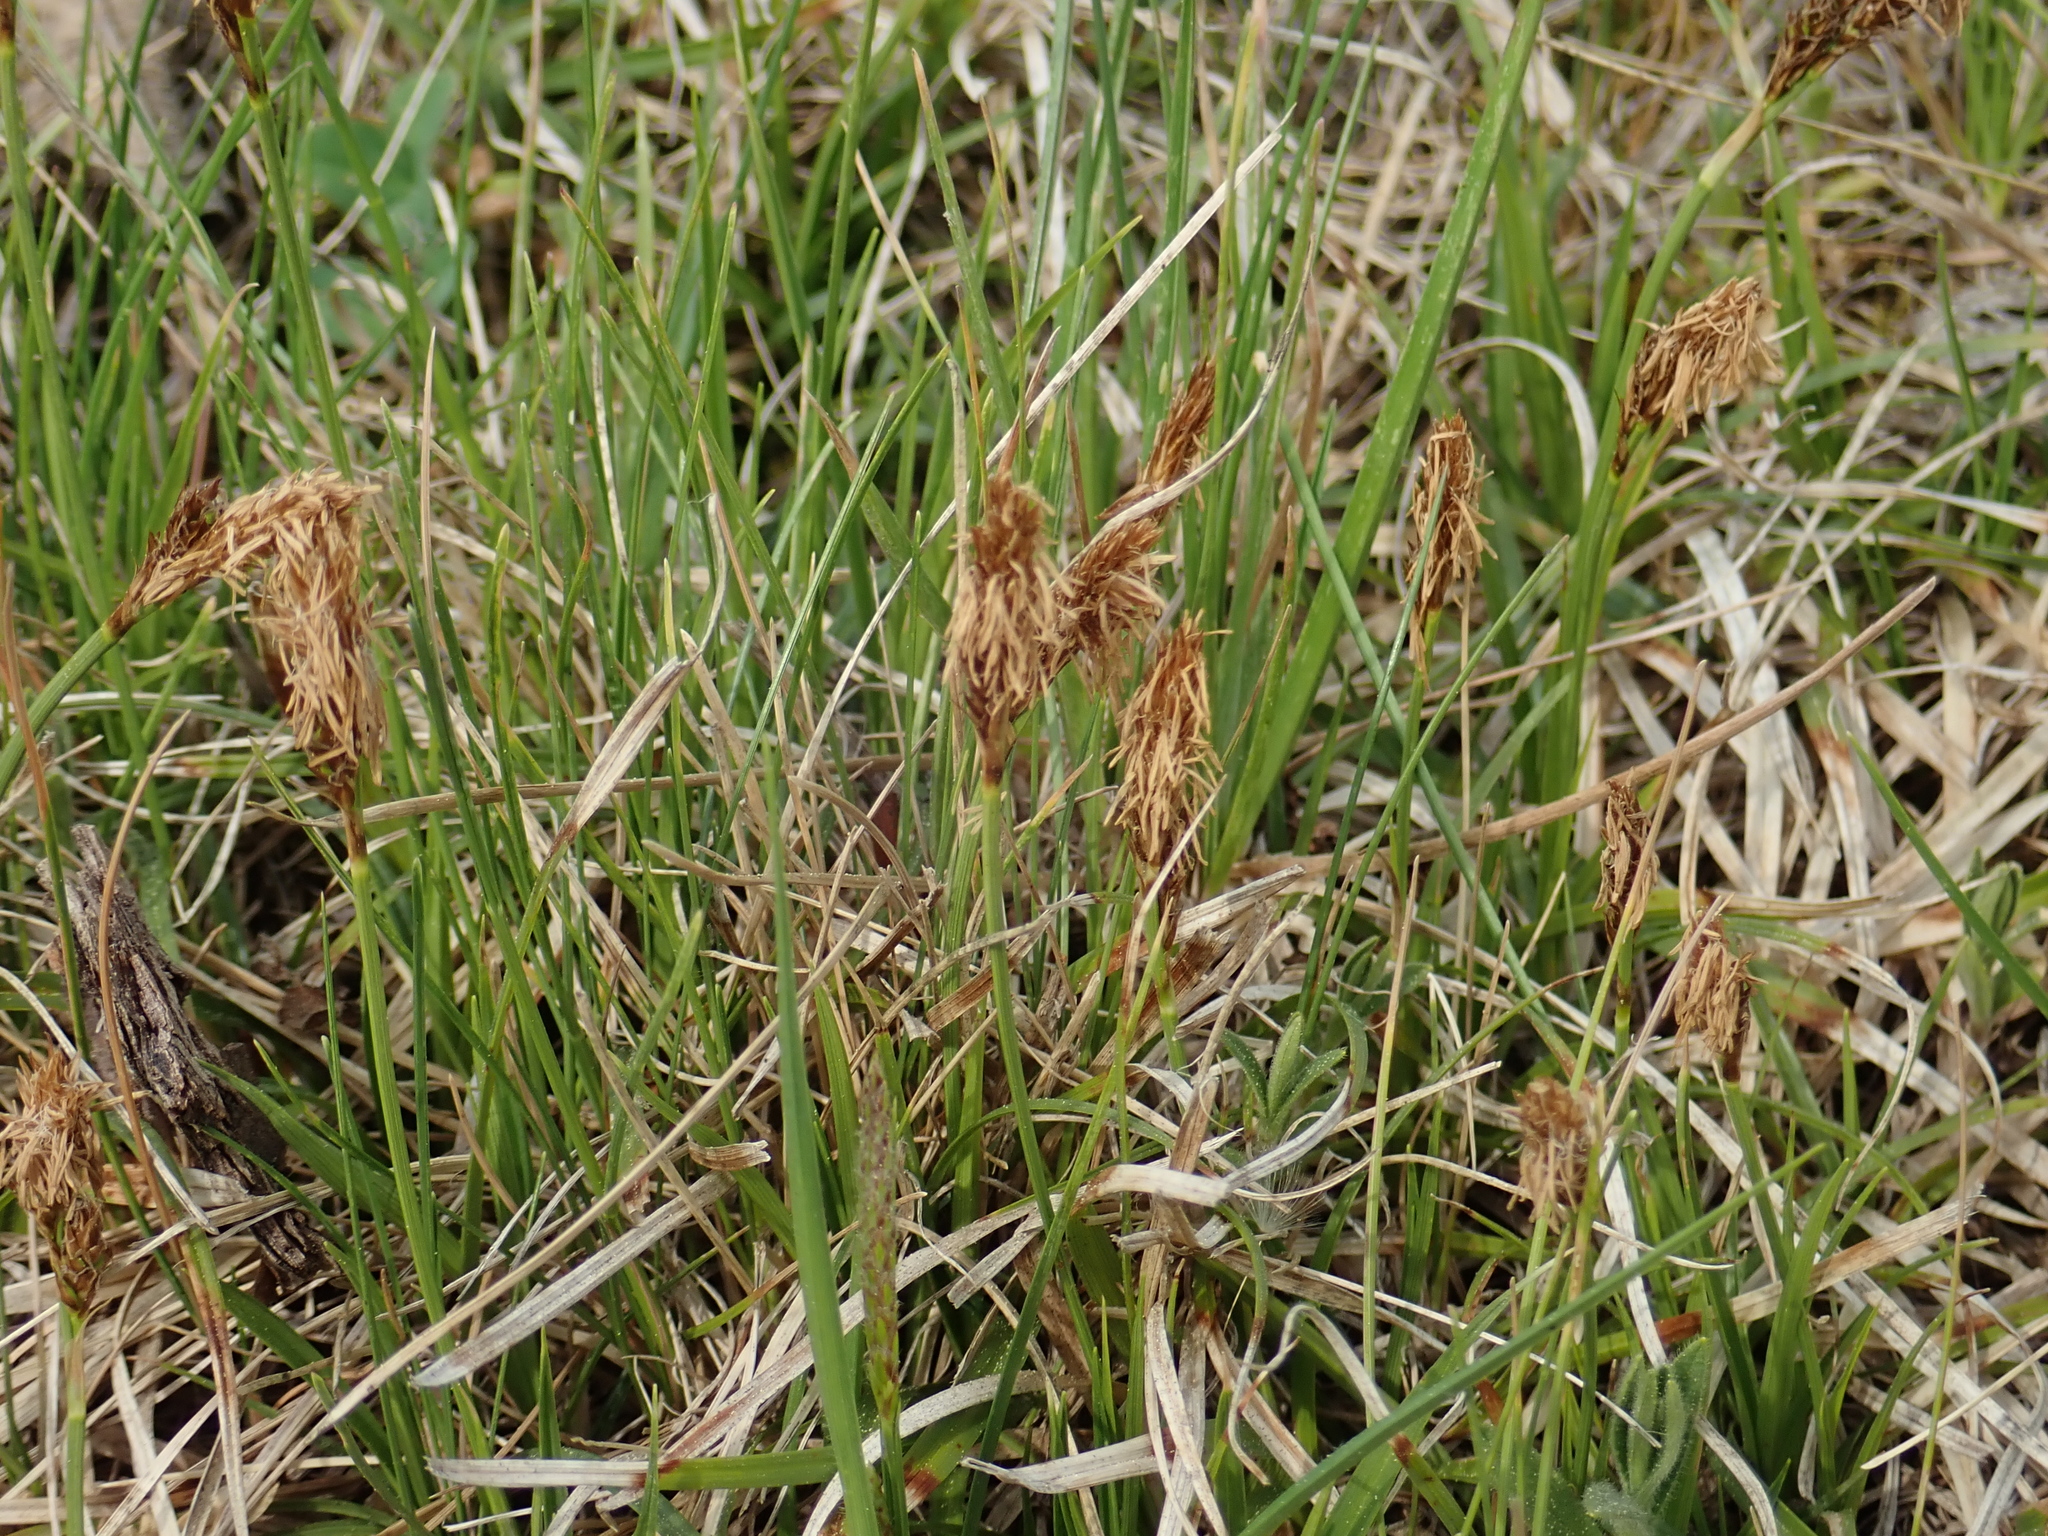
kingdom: Plantae
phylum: Tracheophyta
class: Liliopsida
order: Poales
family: Cyperaceae
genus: Carex
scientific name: Carex caryophyllea
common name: Spring sedge
